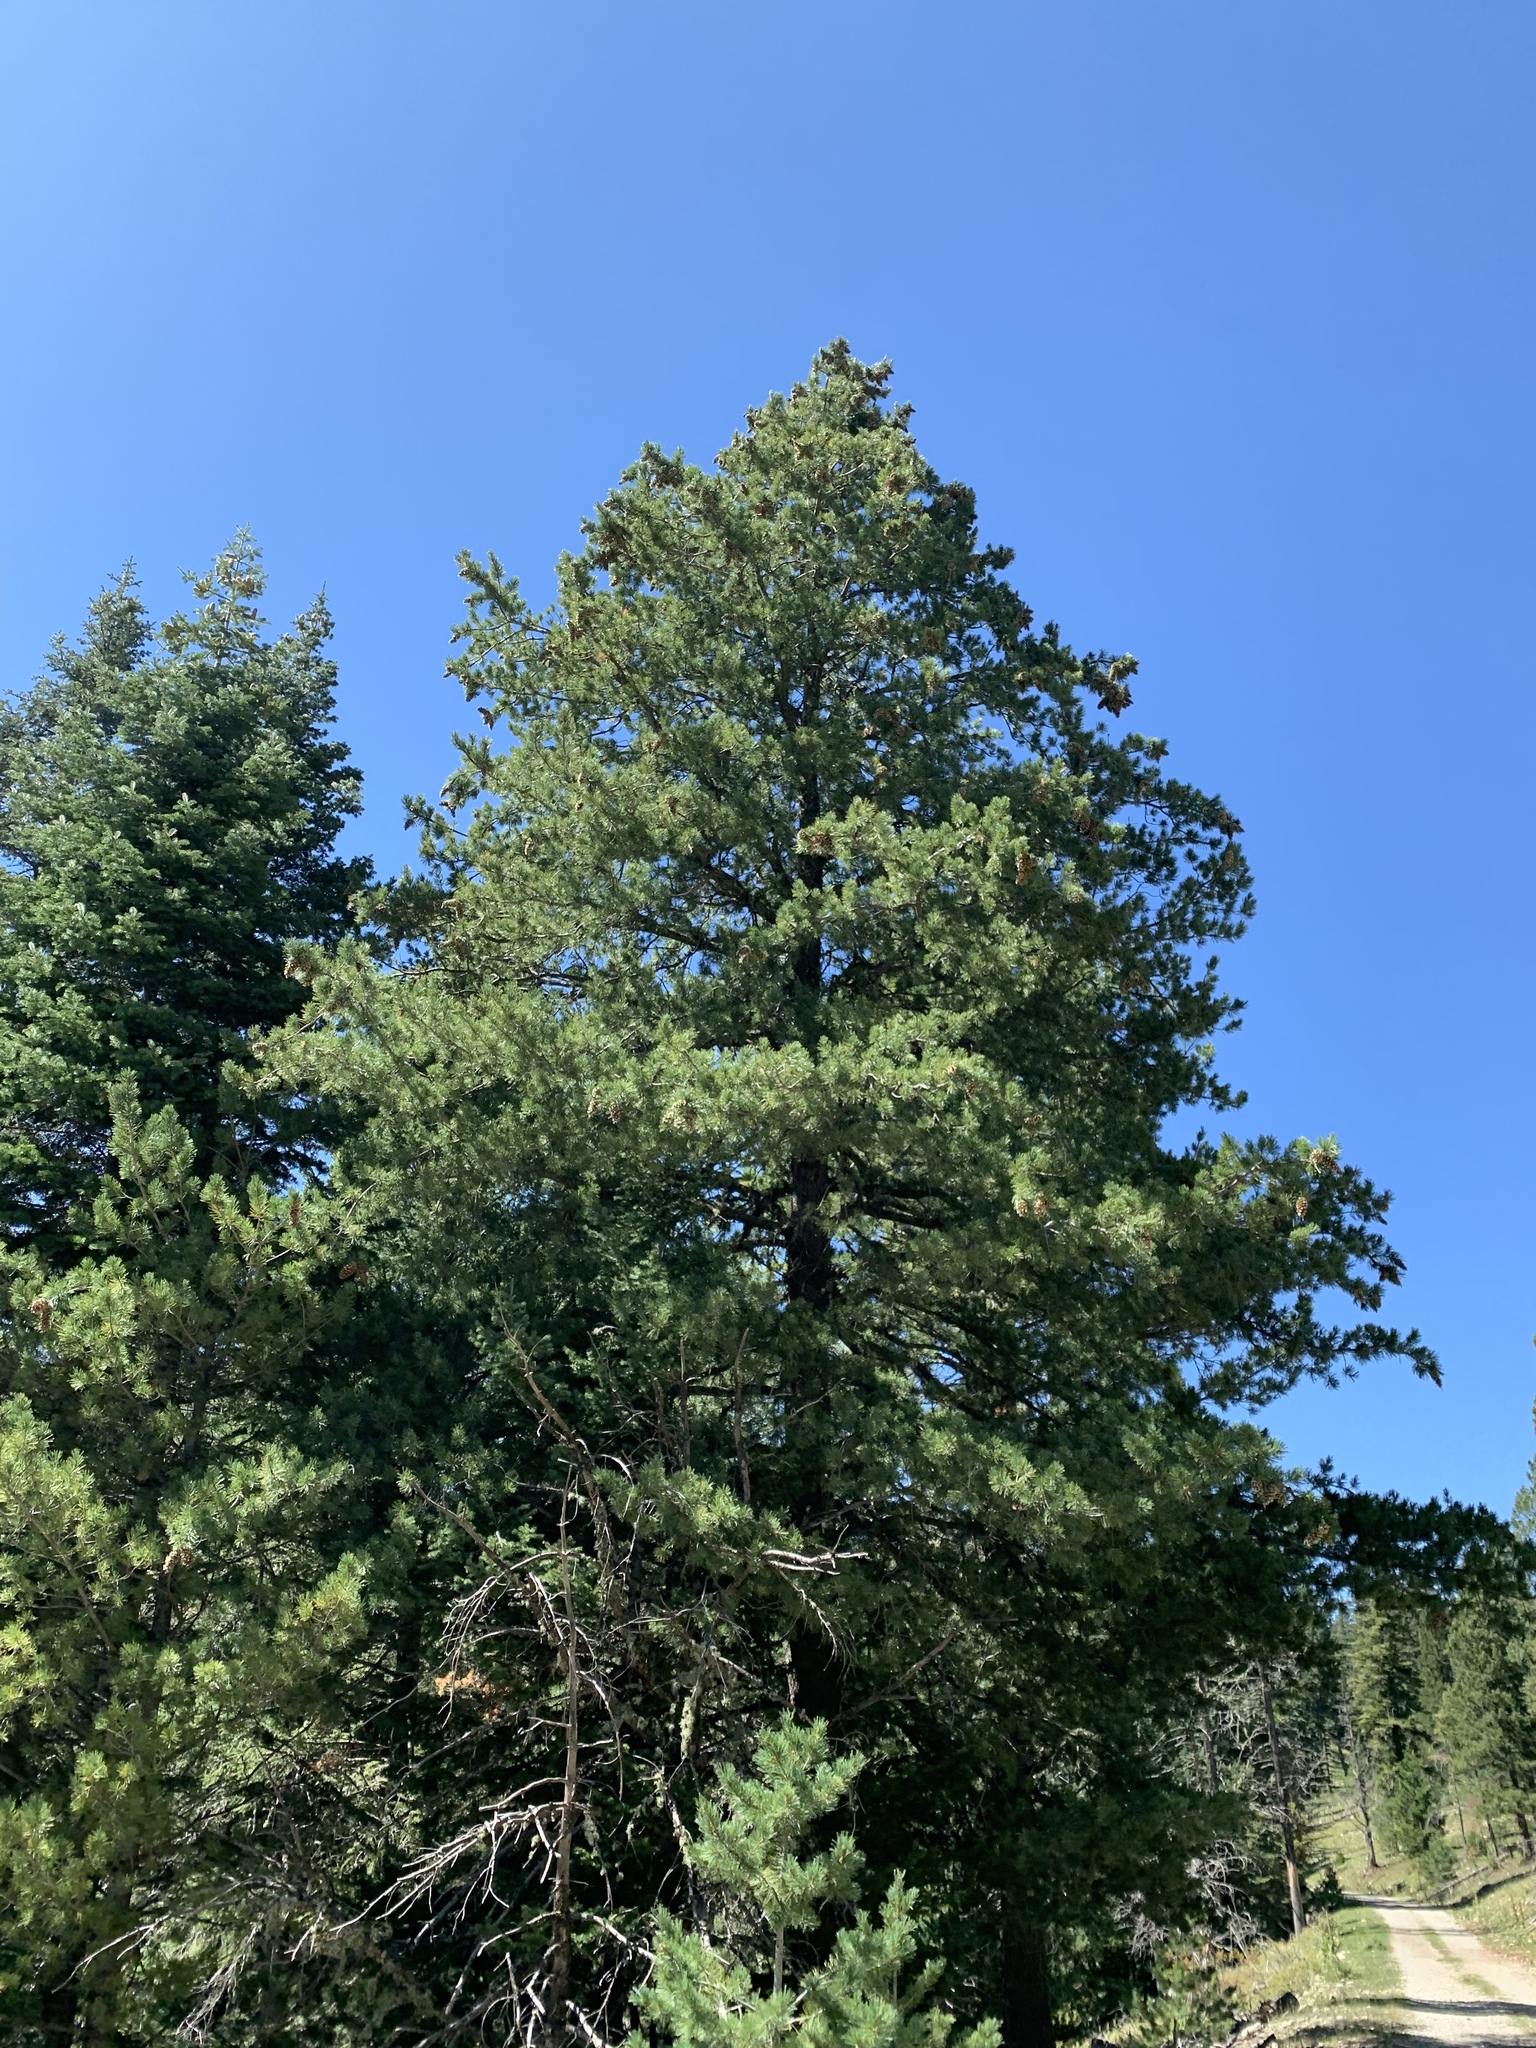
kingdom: Plantae
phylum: Tracheophyta
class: Pinopsida
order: Pinales
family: Pinaceae
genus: Pinus
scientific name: Pinus strobiformis
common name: Southwestern white pine
